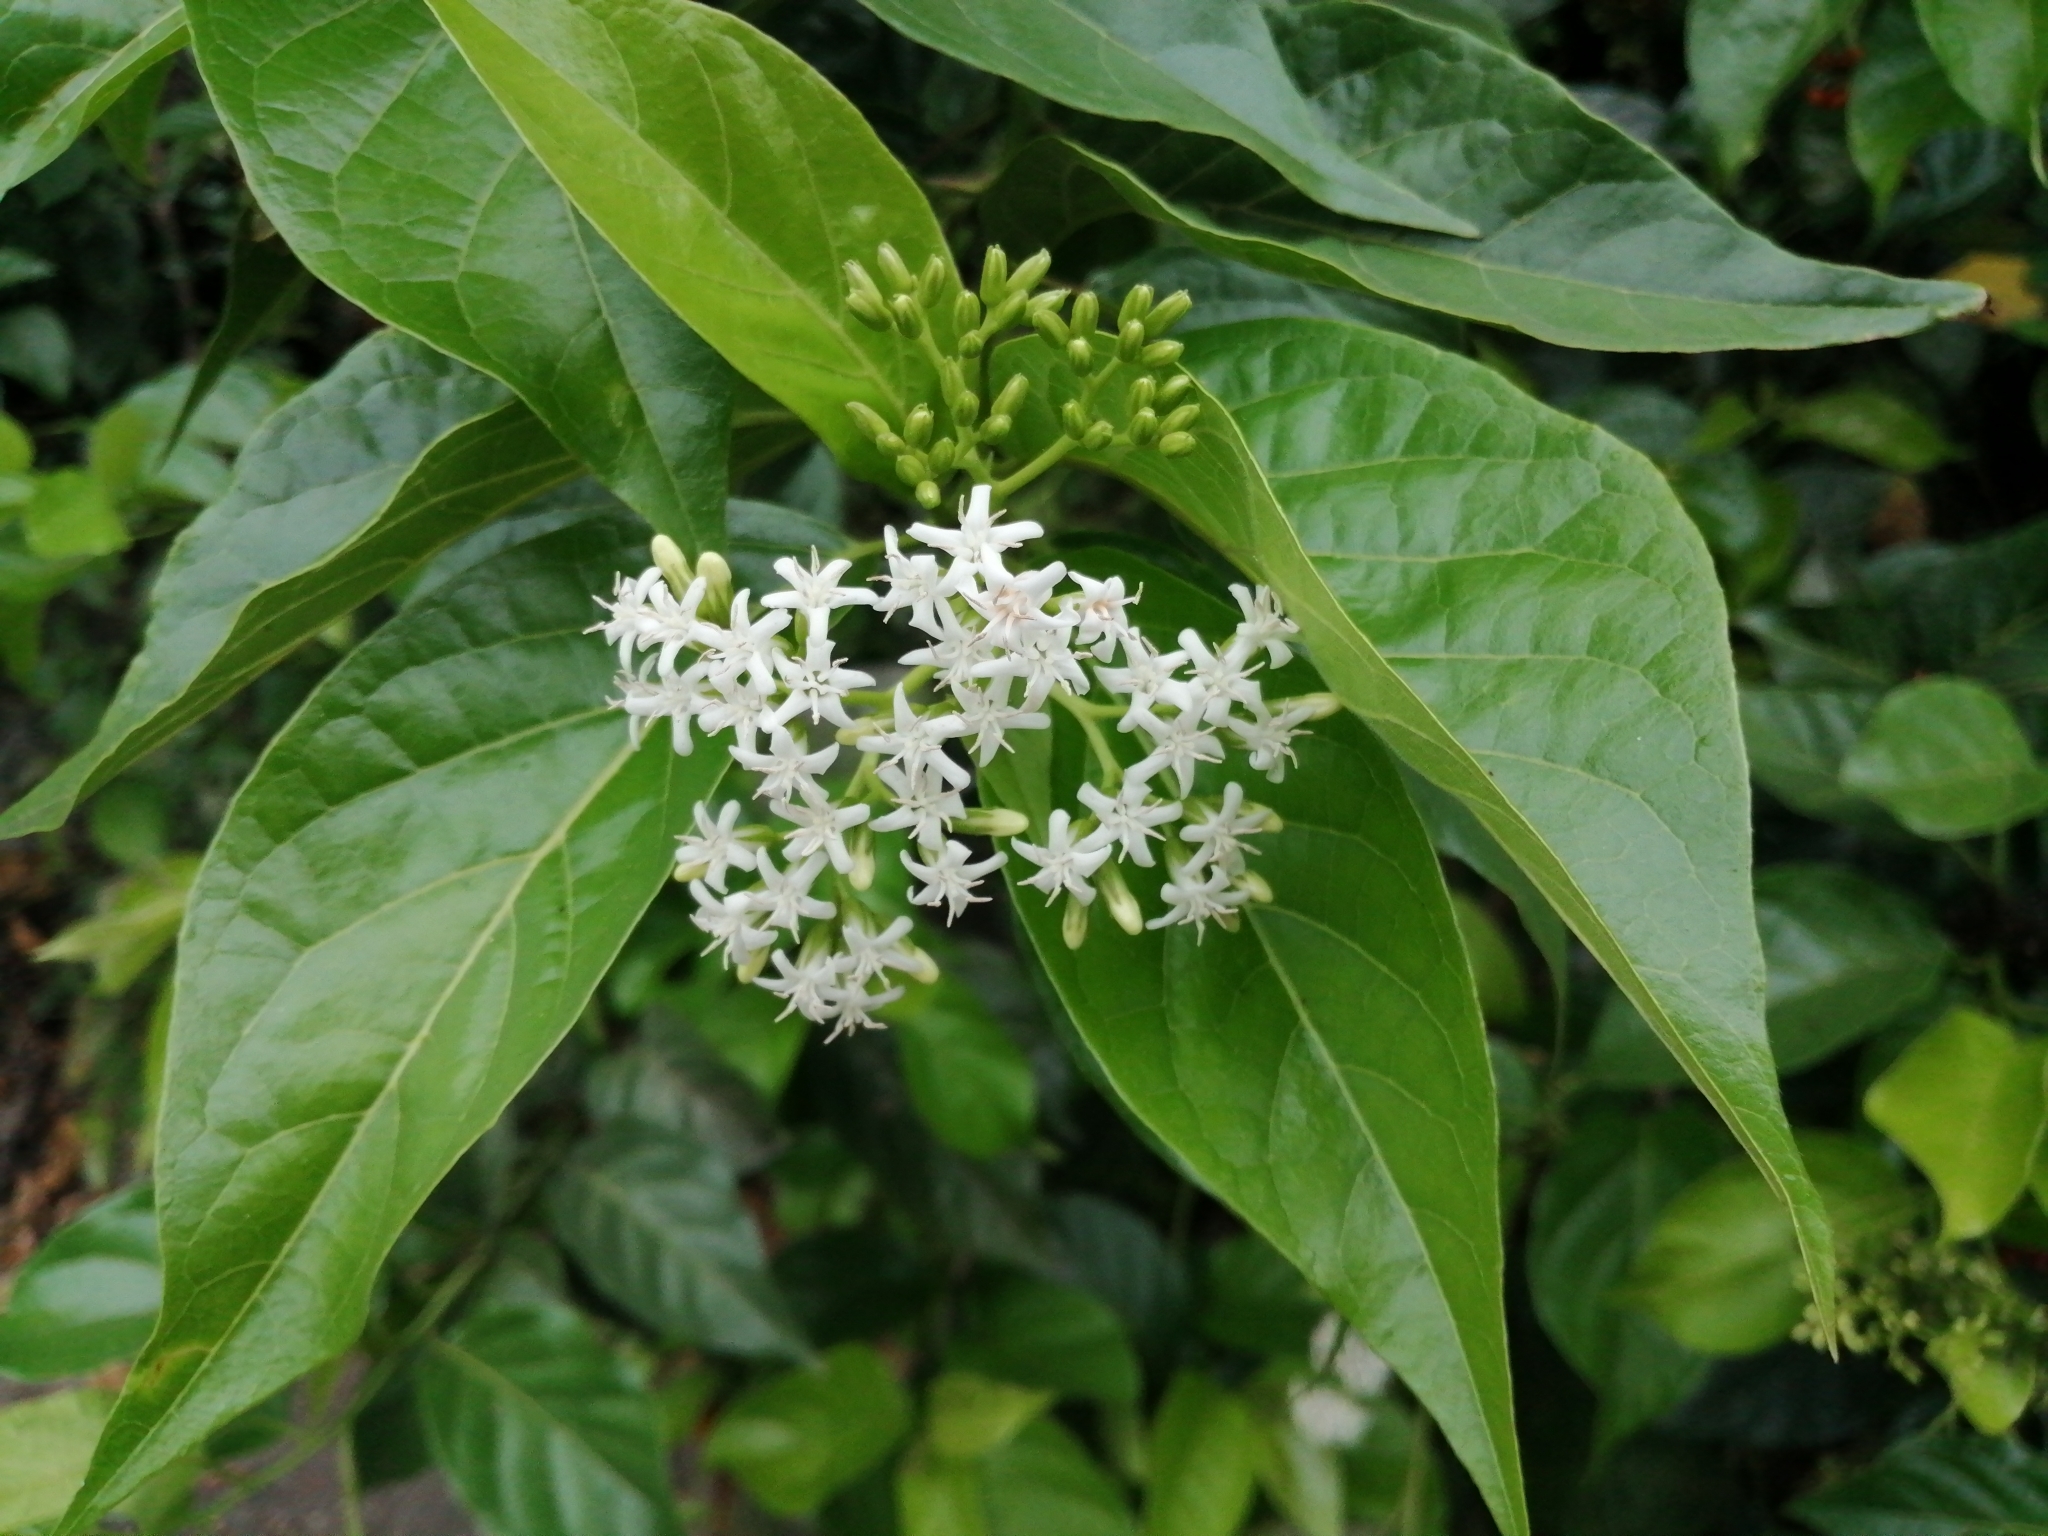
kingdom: Plantae
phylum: Tracheophyta
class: Magnoliopsida
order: Boraginales
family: Ehretiaceae
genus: Ehretia
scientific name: Ehretia resinosa
